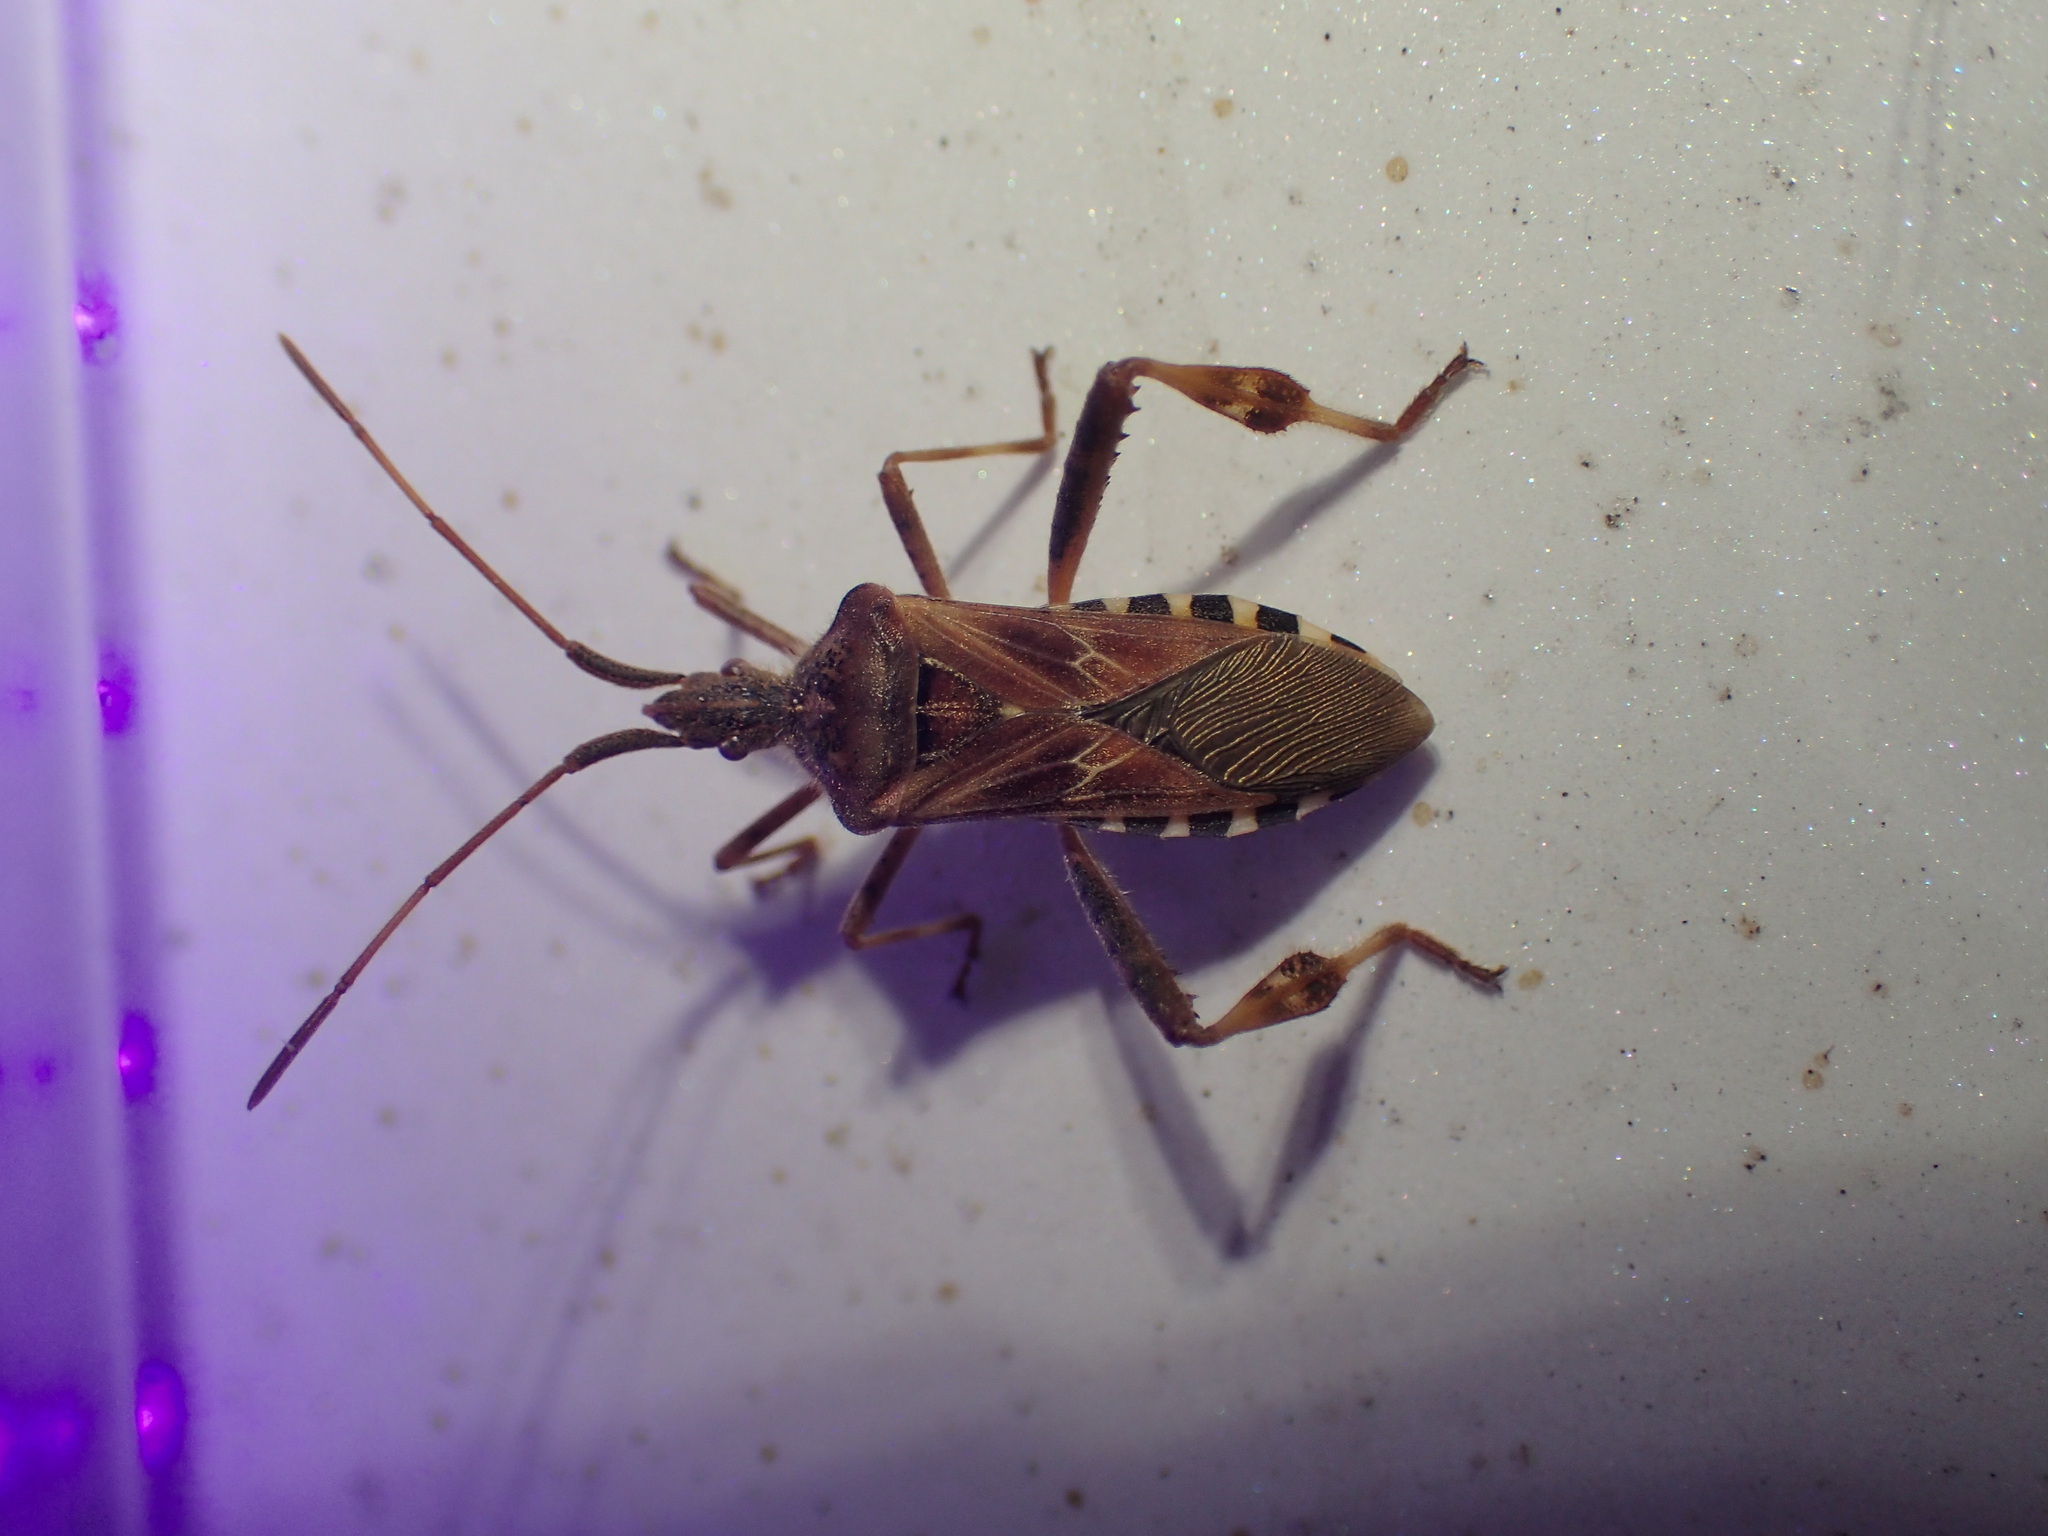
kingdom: Animalia
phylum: Arthropoda
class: Insecta
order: Hemiptera
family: Coreidae
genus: Leptoglossus
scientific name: Leptoglossus occidentalis
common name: Western conifer-seed bug
